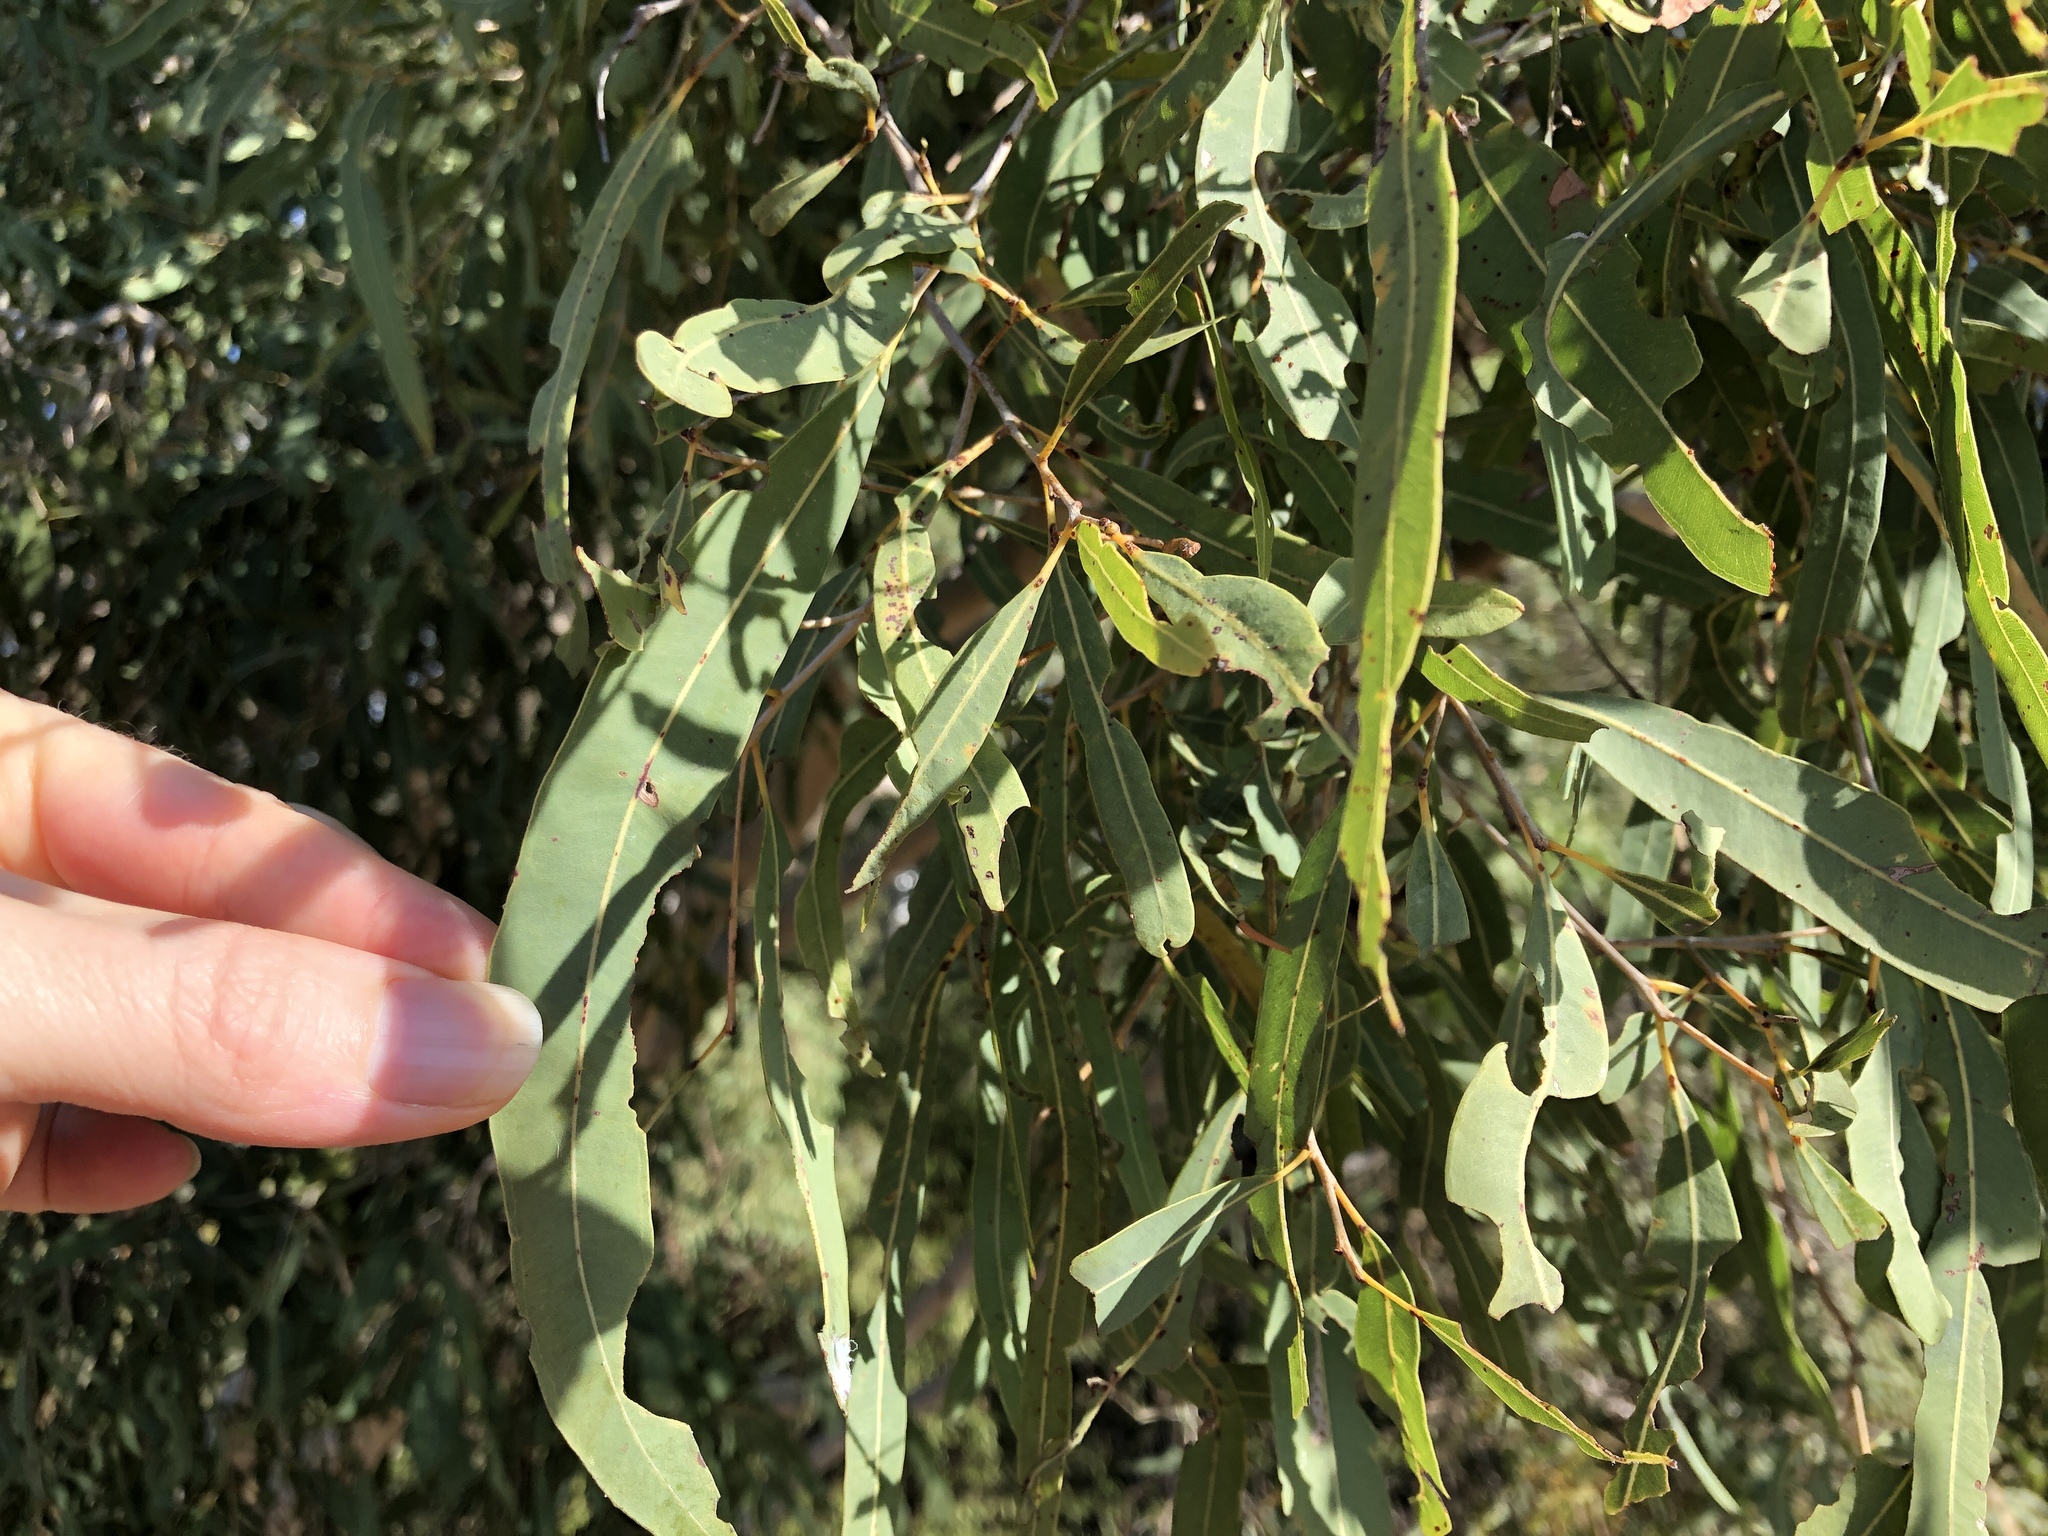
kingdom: Plantae
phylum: Tracheophyta
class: Magnoliopsida
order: Myrtales
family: Myrtaceae
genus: Corymbia
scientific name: Corymbia tessellaris
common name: Carbeen
